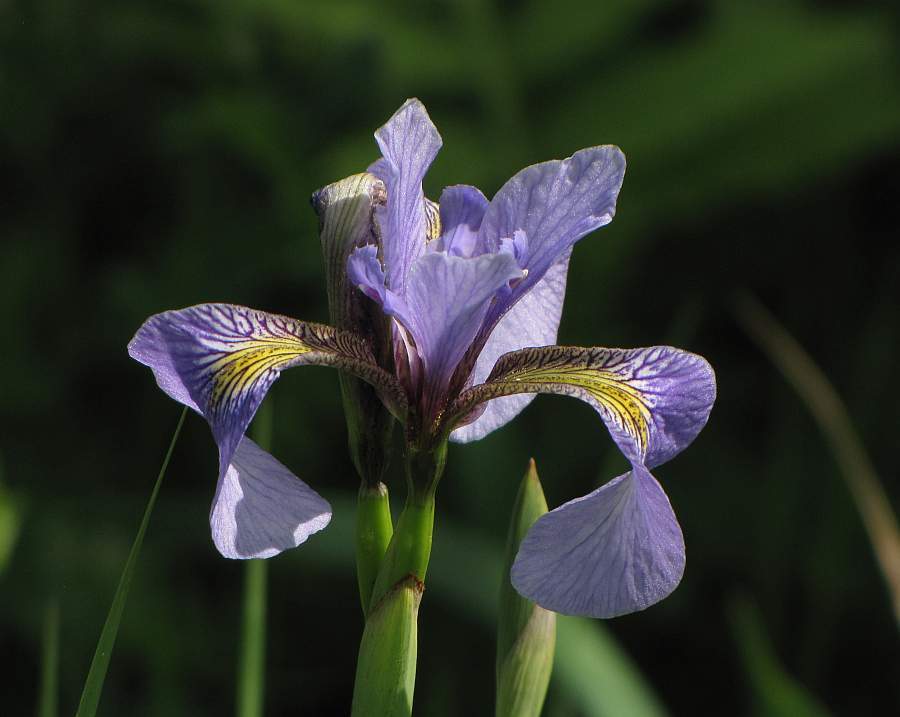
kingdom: Plantae
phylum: Tracheophyta
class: Liliopsida
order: Asparagales
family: Iridaceae
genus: Iris
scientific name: Iris versicolor
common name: Purple iris
